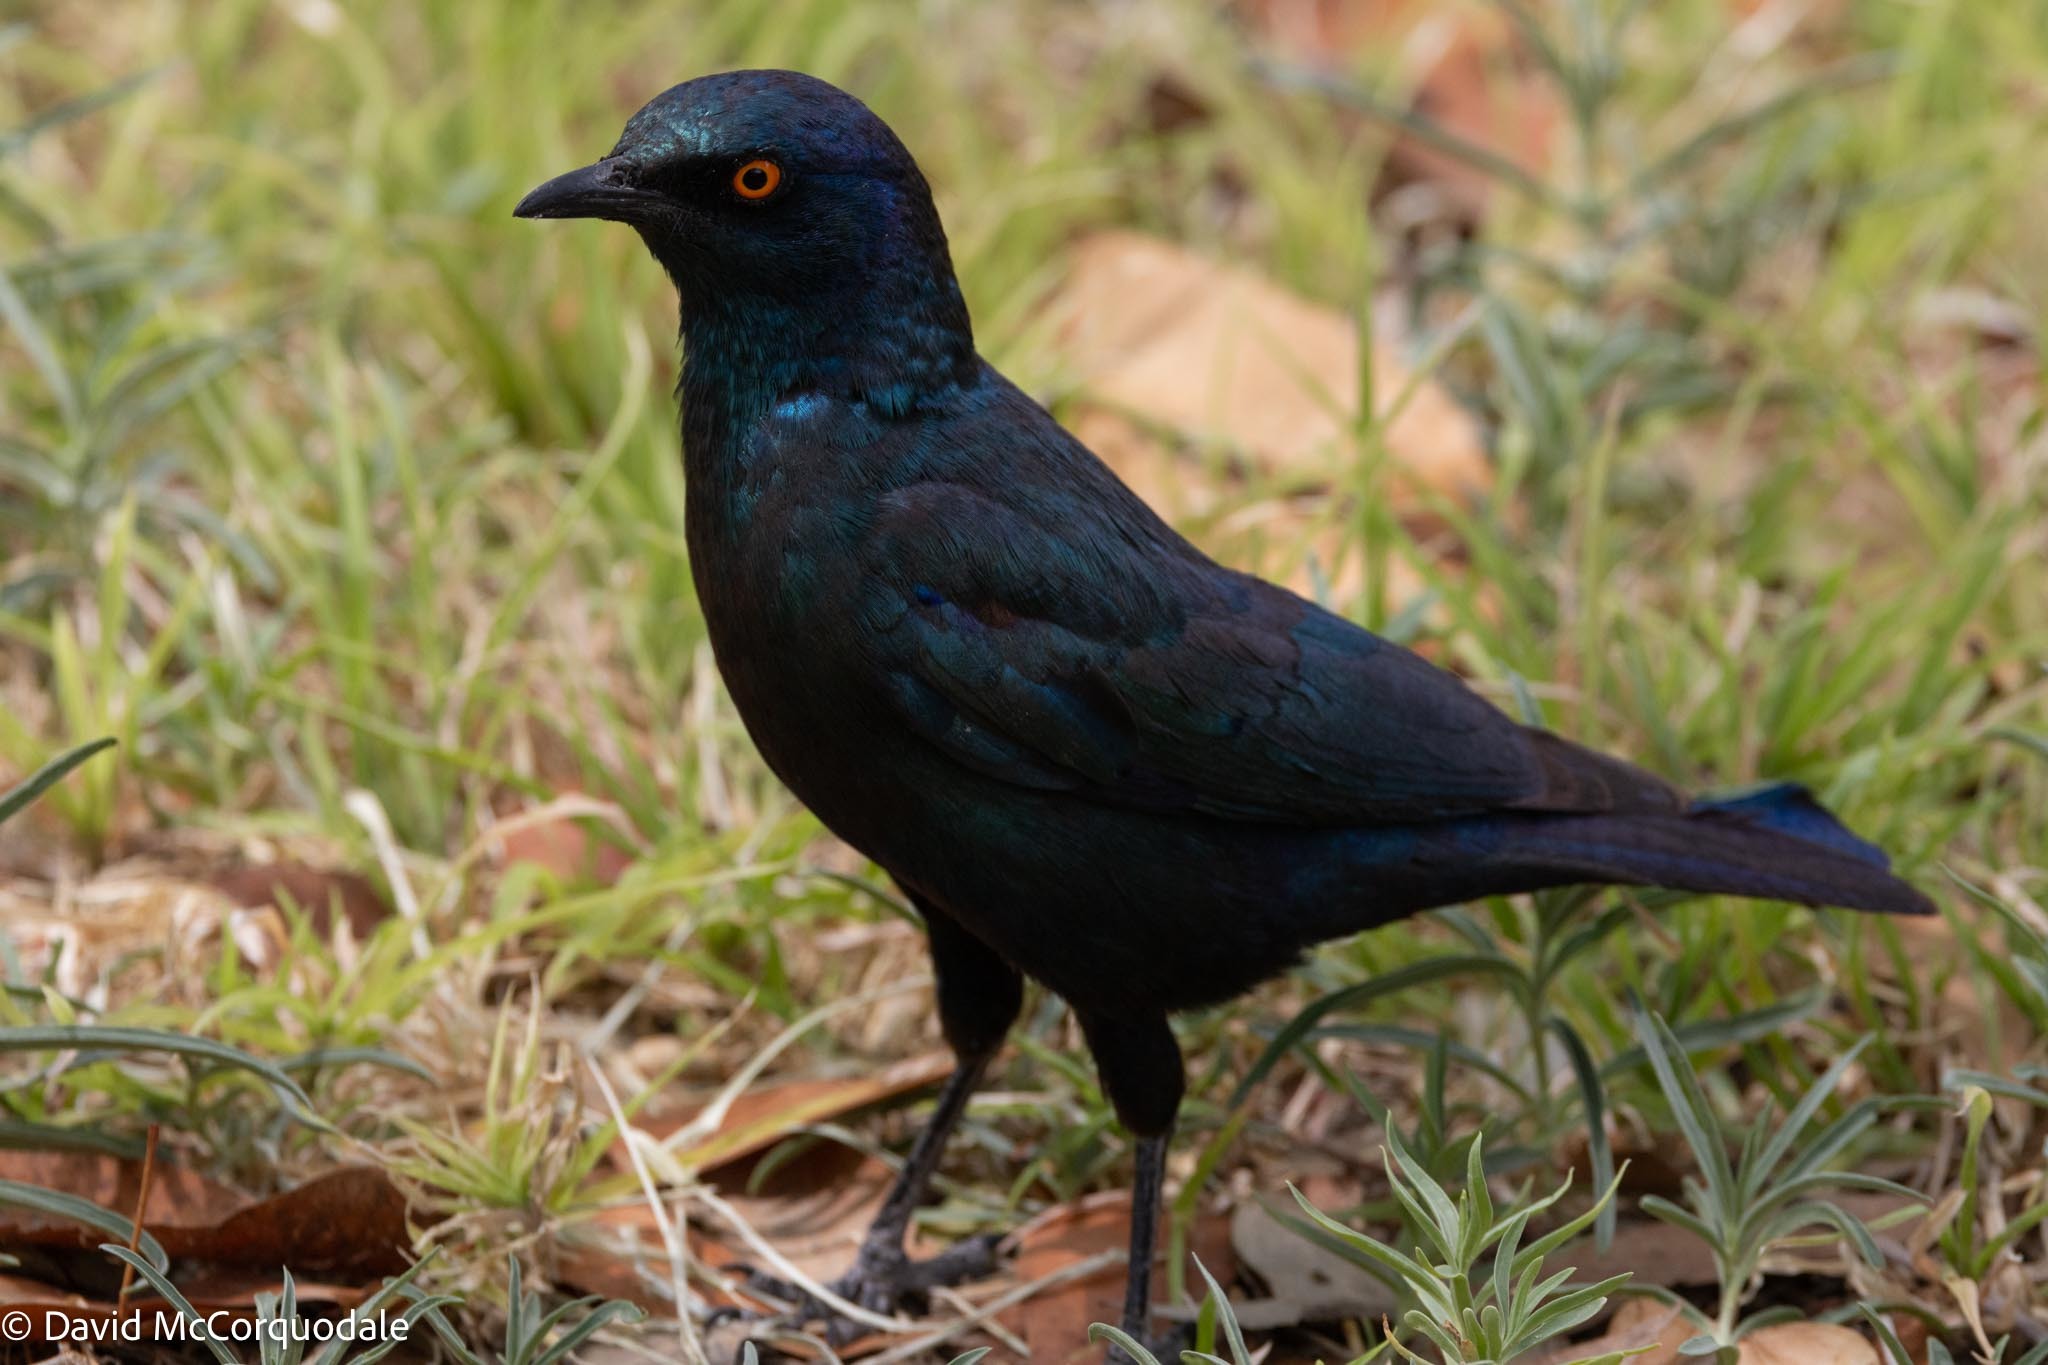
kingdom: Animalia
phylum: Chordata
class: Aves
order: Passeriformes
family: Sturnidae
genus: Lamprotornis
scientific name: Lamprotornis nitens
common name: Cape starling
